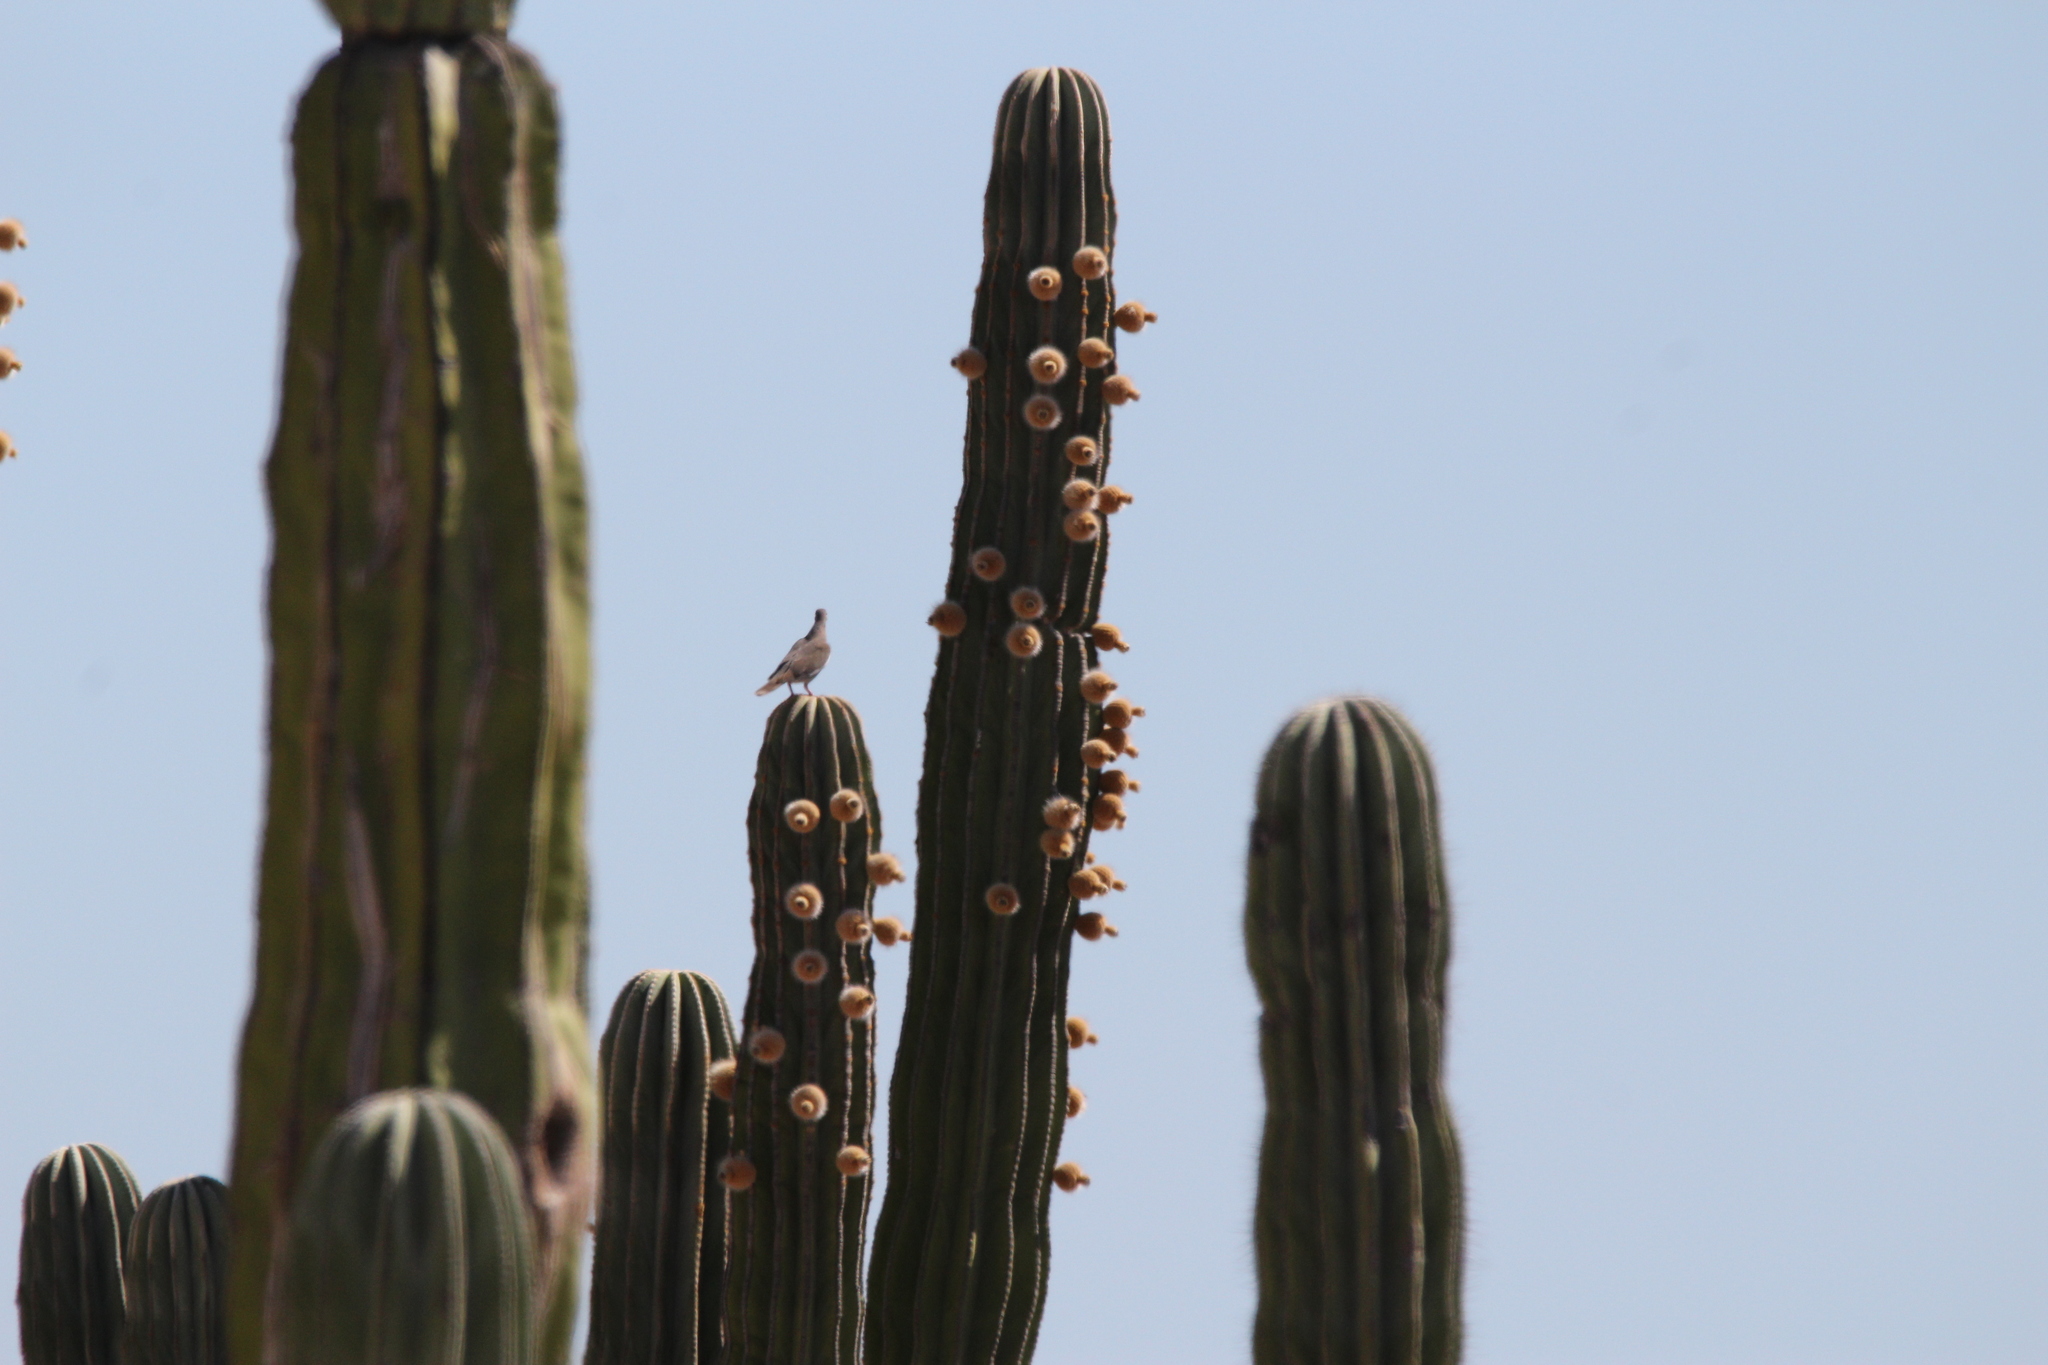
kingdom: Plantae
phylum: Tracheophyta
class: Magnoliopsida
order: Caryophyllales
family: Cactaceae
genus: Pachycereus
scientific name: Pachycereus pringlei
